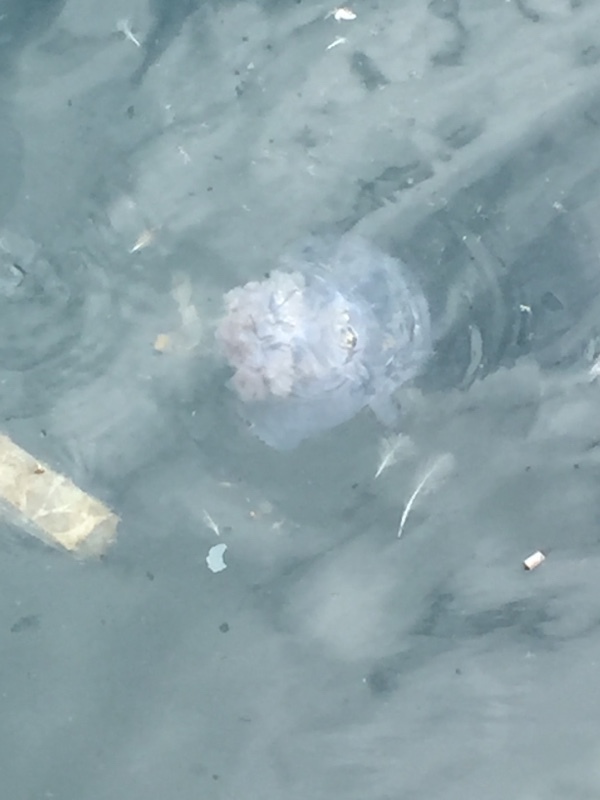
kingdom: Animalia
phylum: Cnidaria
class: Scyphozoa
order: Rhizostomeae
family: Rhizostomatidae
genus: Rhizostoma
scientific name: Rhizostoma pulmo
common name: Barrel jellyfish
